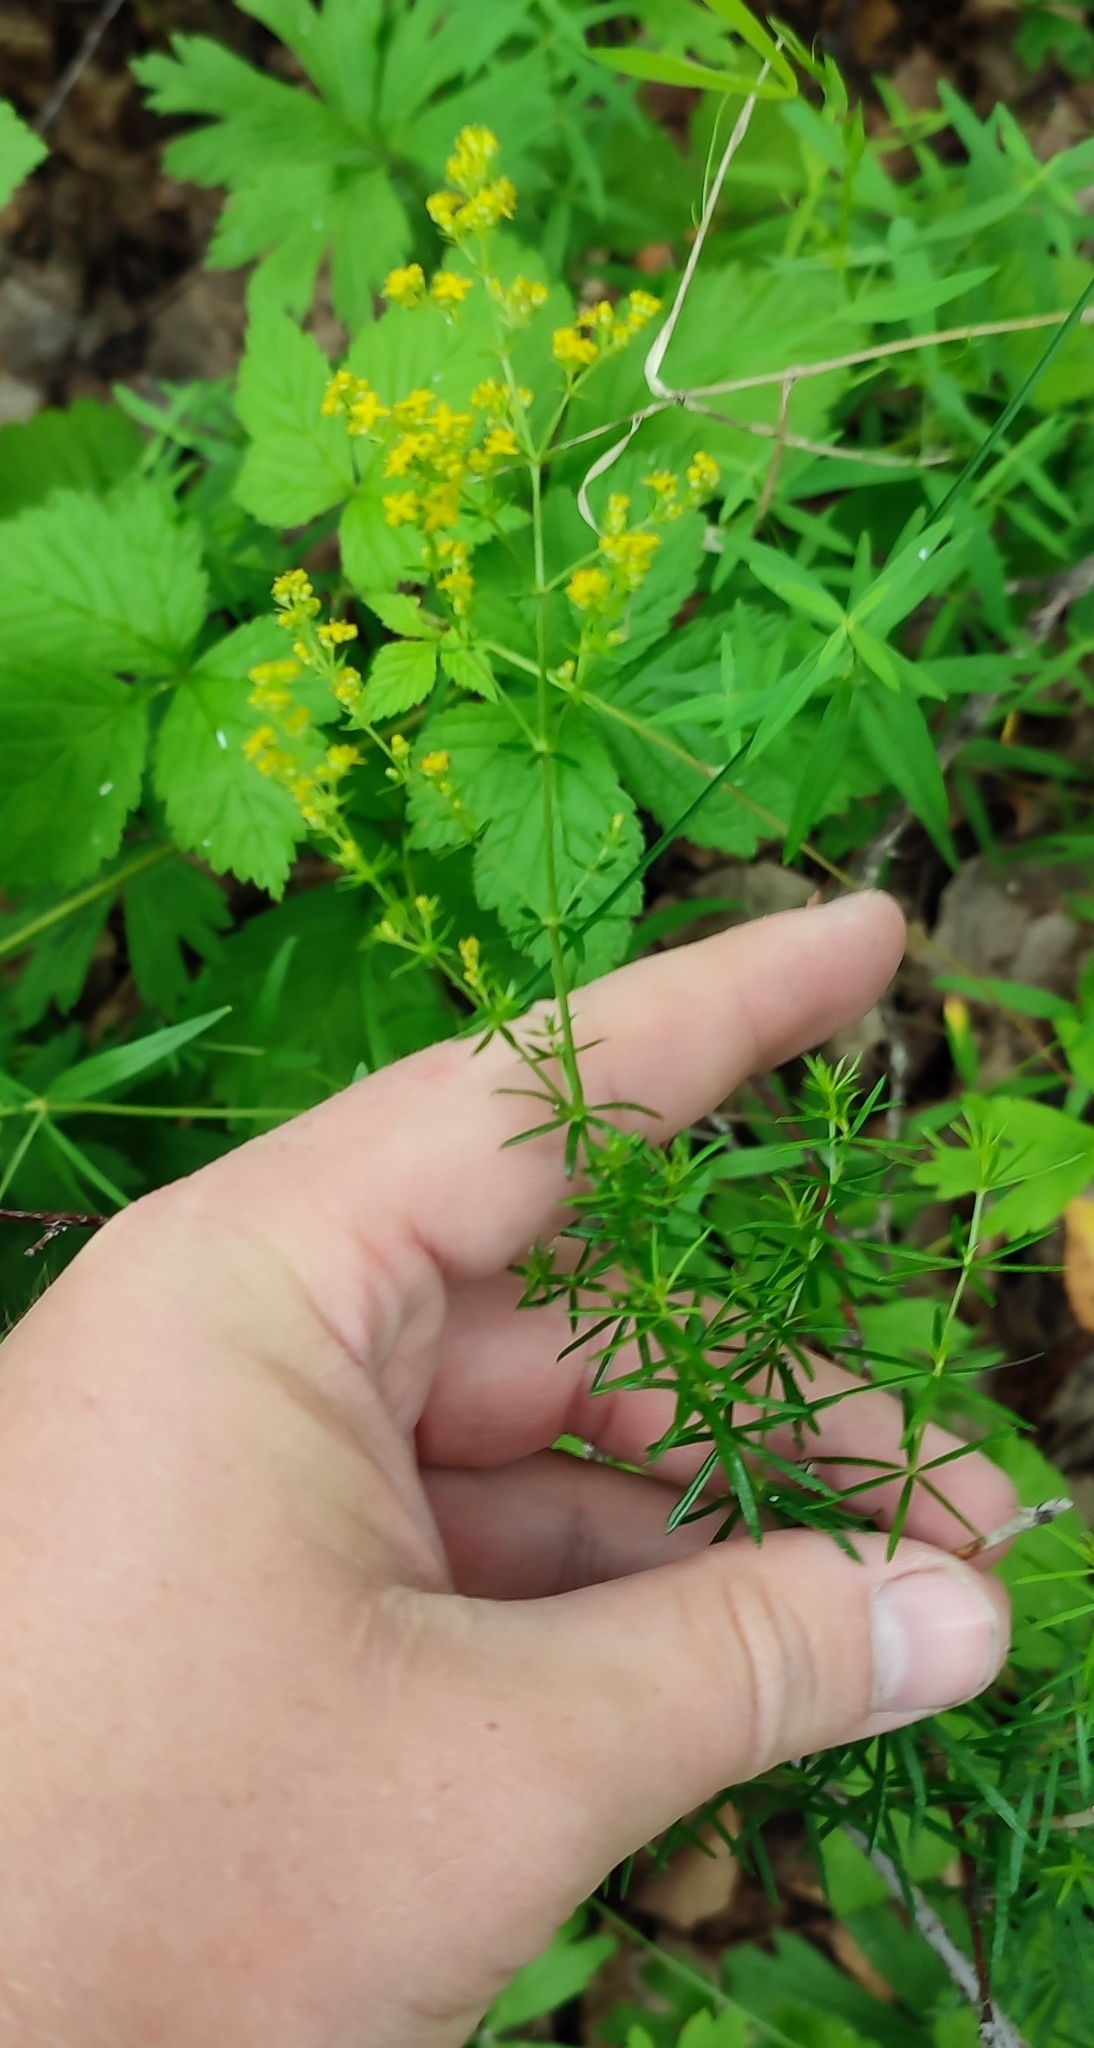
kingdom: Plantae
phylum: Tracheophyta
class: Magnoliopsida
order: Gentianales
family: Rubiaceae
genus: Galium
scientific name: Galium verum
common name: Lady's bedstraw
